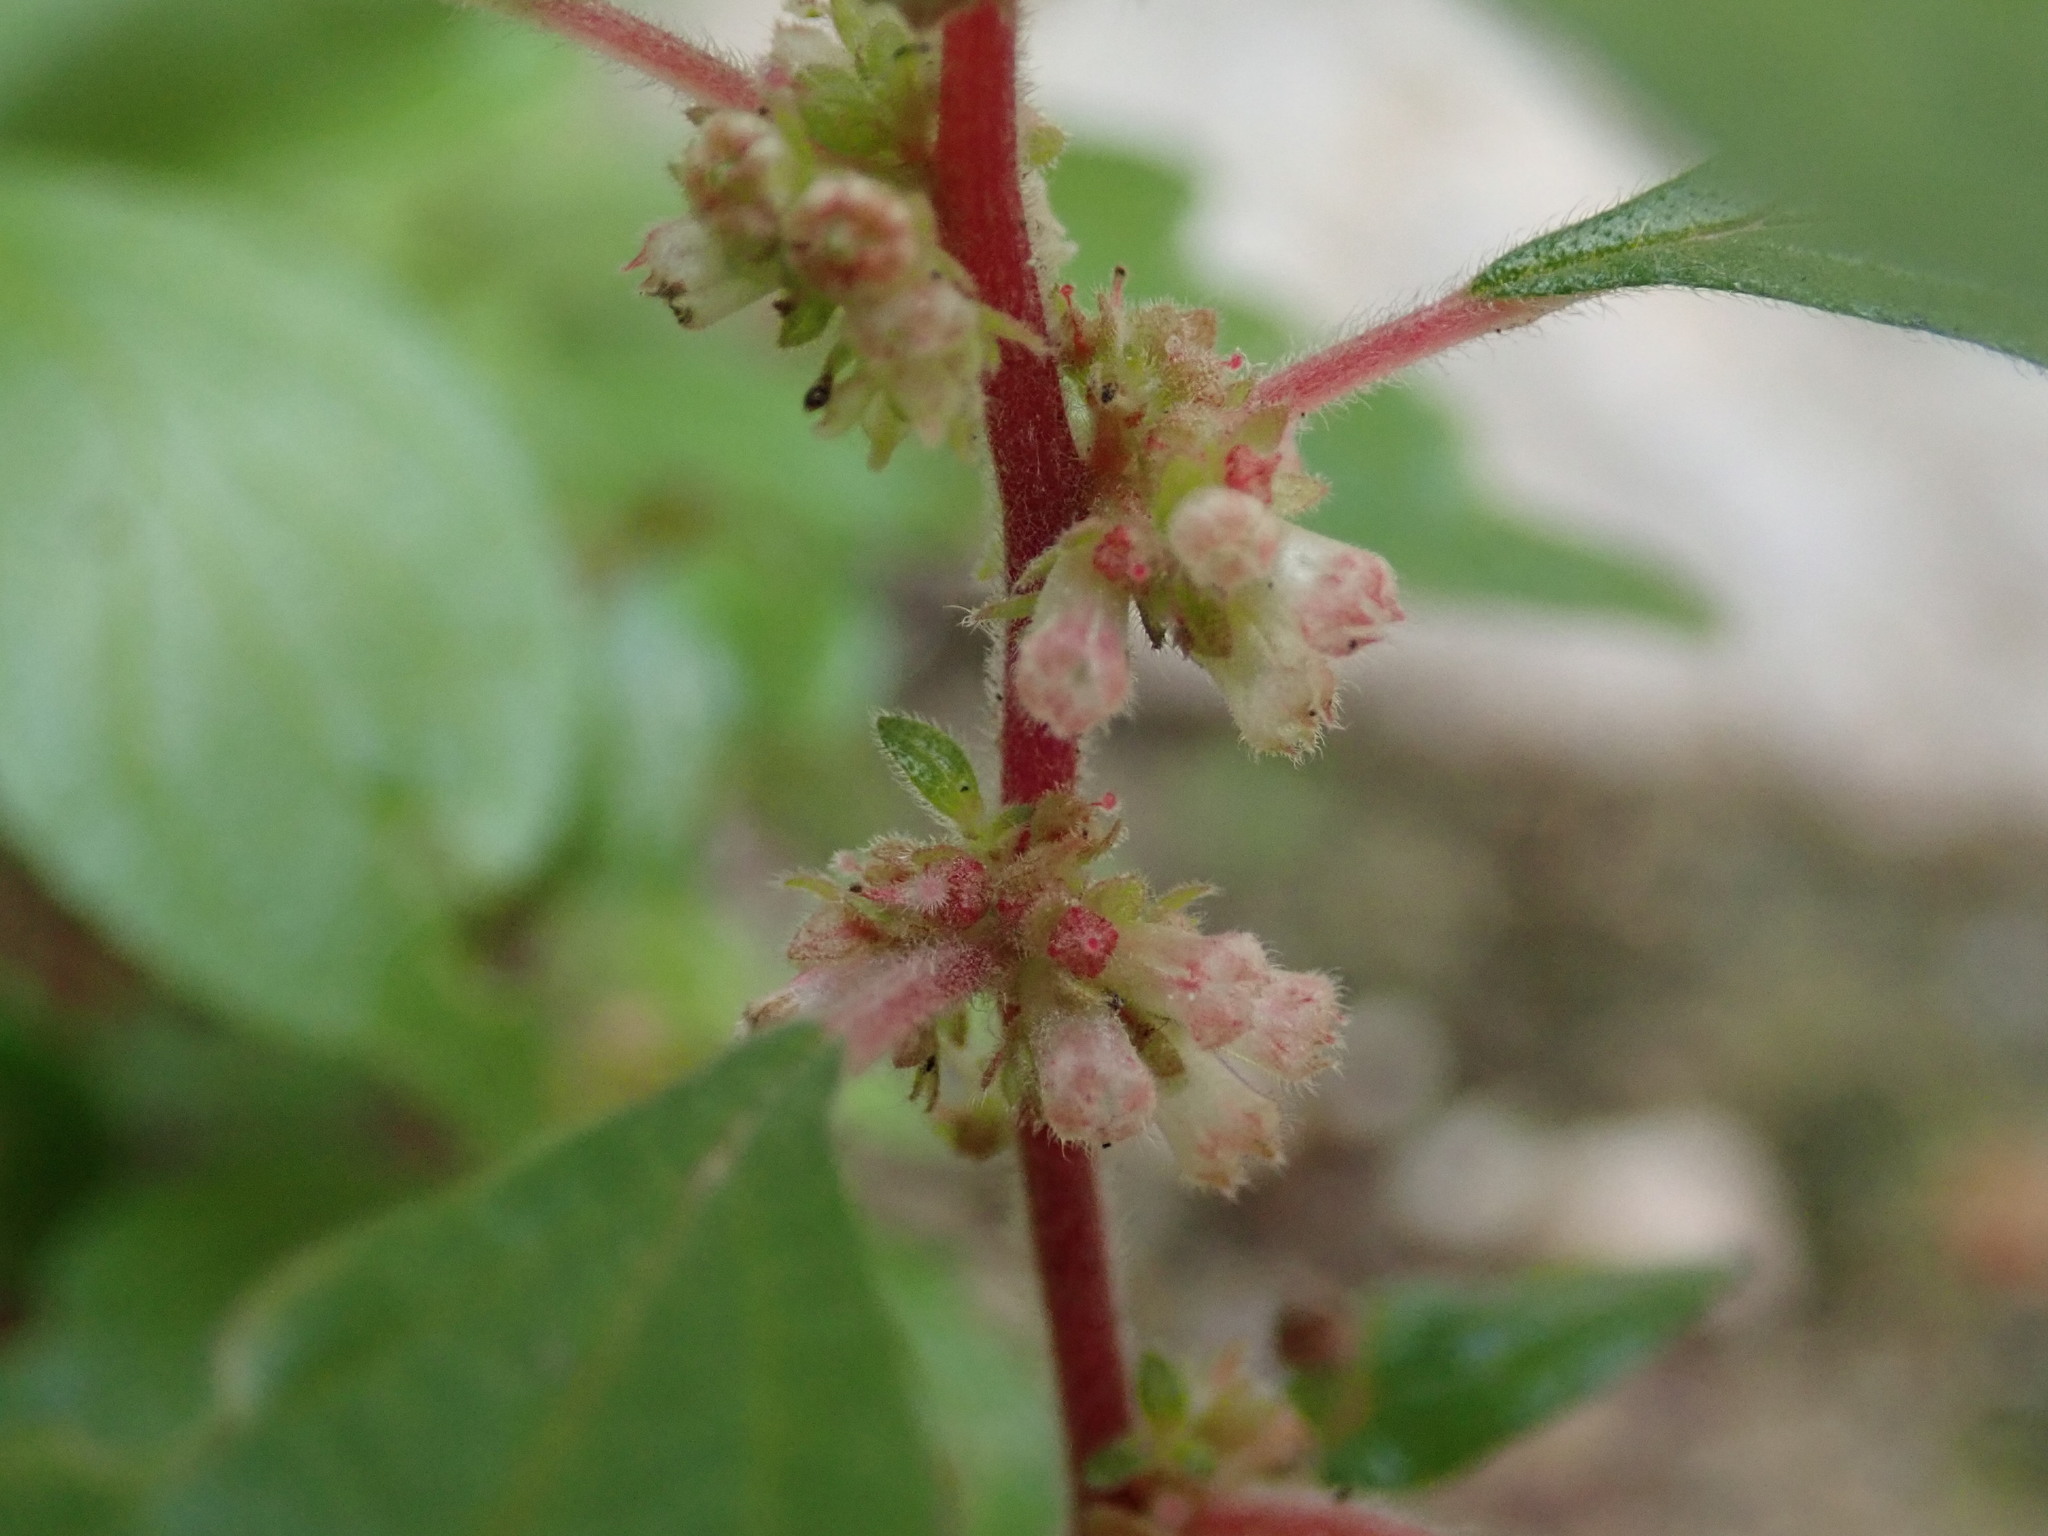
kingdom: Plantae
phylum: Tracheophyta
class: Magnoliopsida
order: Rosales
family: Urticaceae
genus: Parietaria
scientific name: Parietaria judaica
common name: Pellitory-of-the-wall
